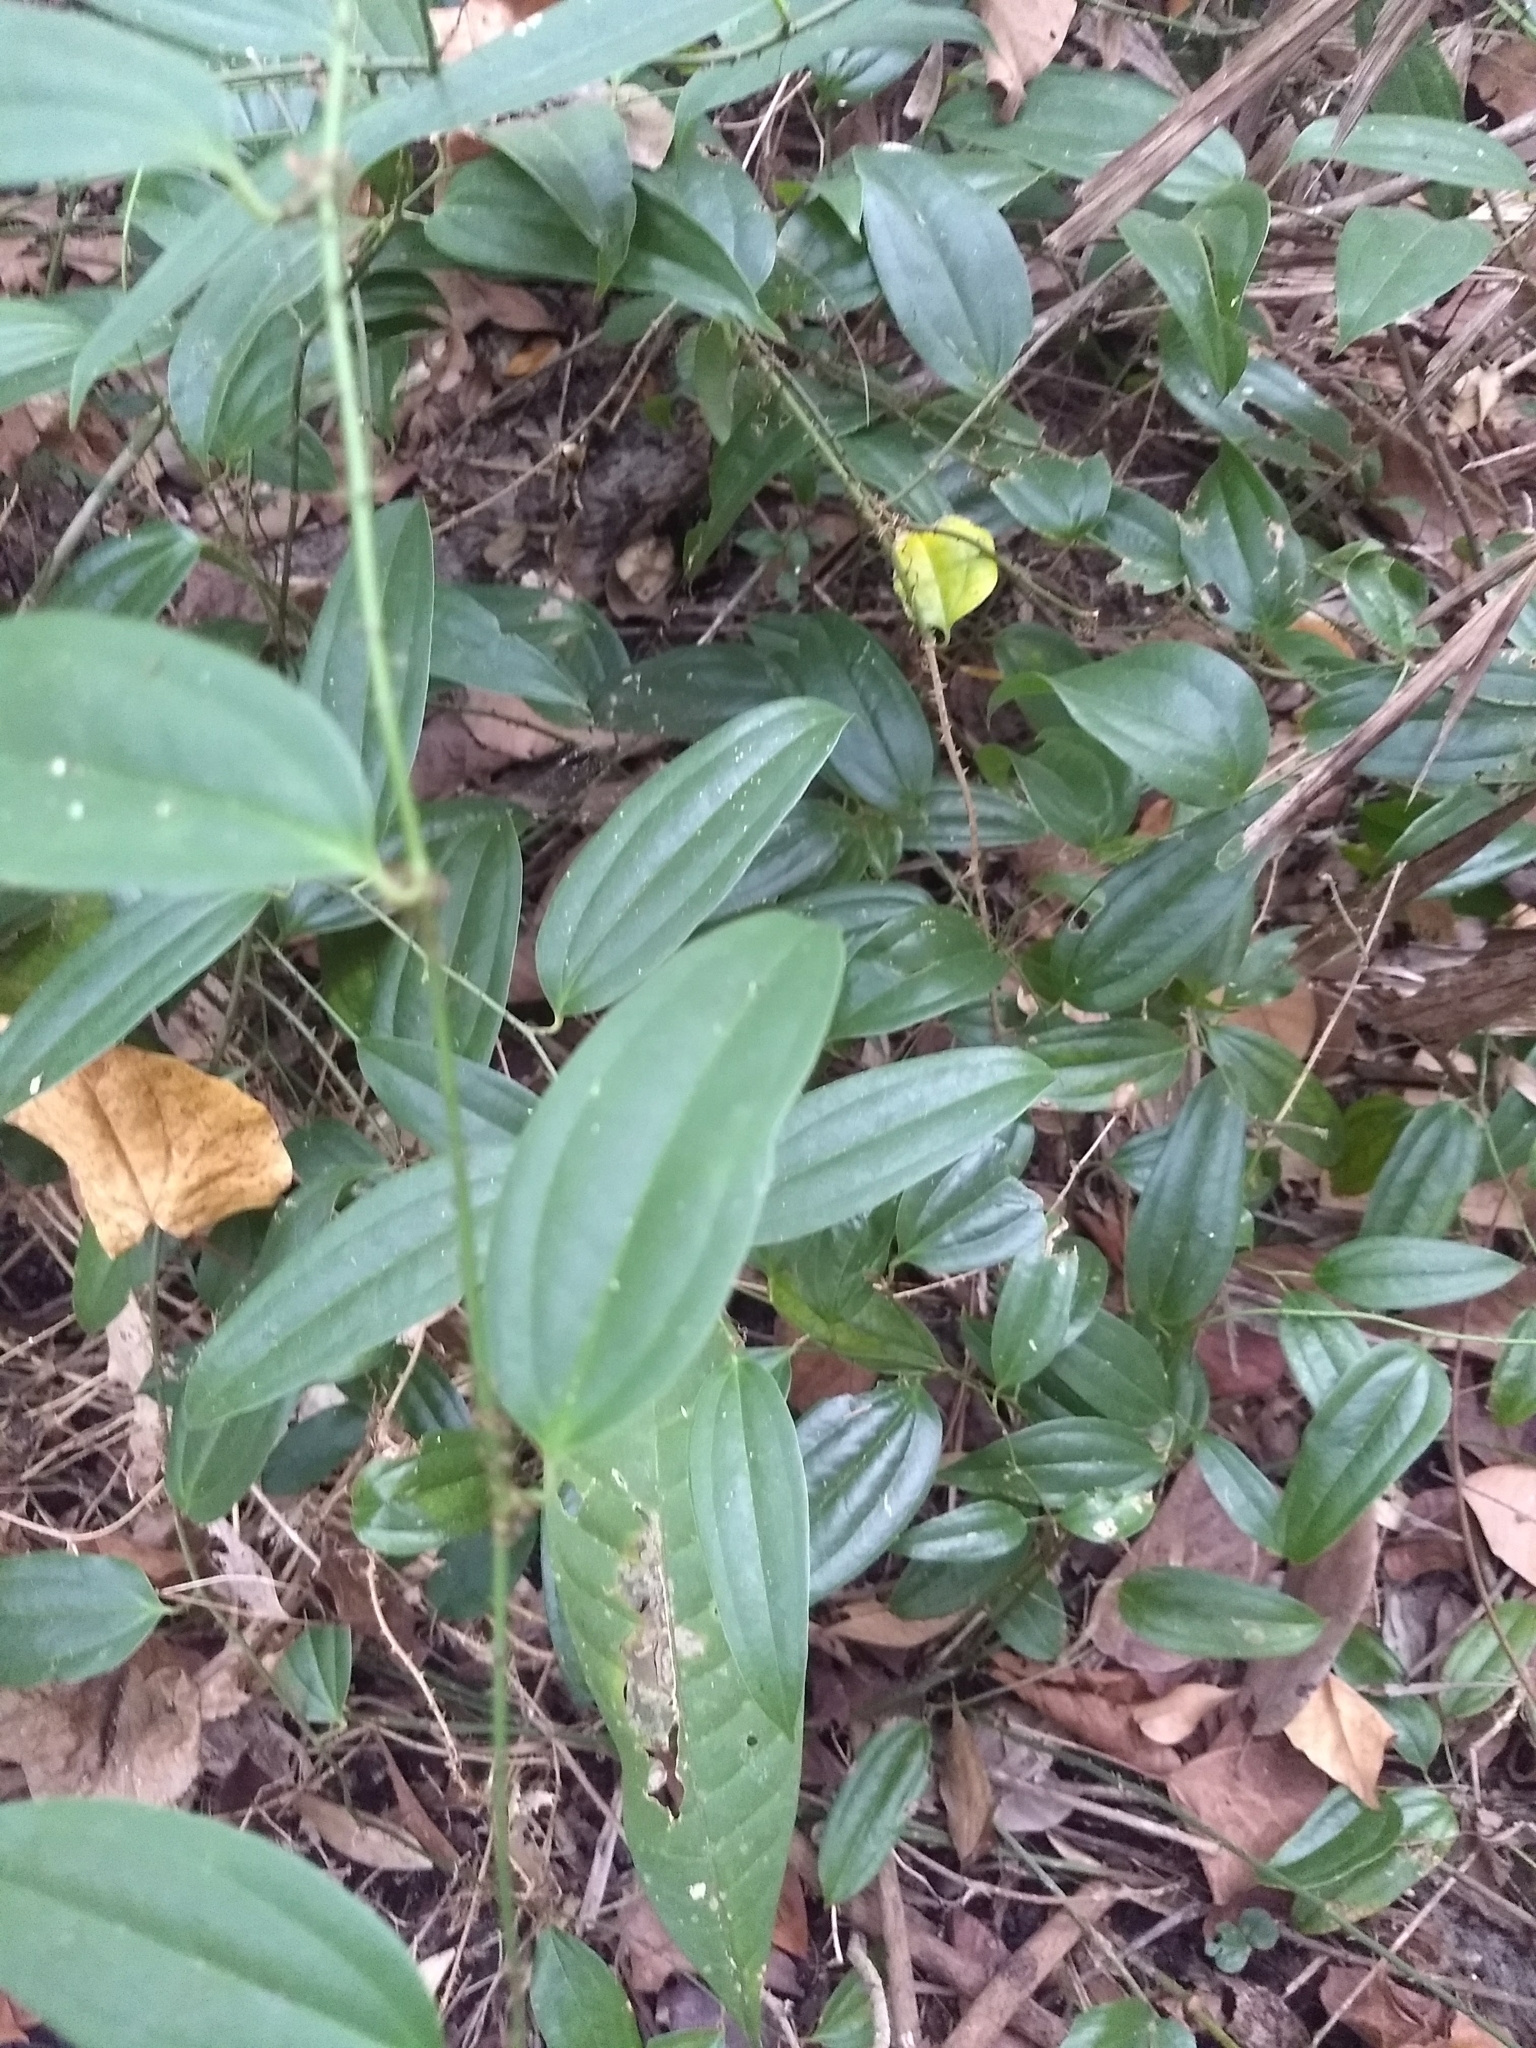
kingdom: Plantae
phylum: Tracheophyta
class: Liliopsida
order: Liliales
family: Smilacaceae
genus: Smilax
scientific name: Smilax zeylanica
